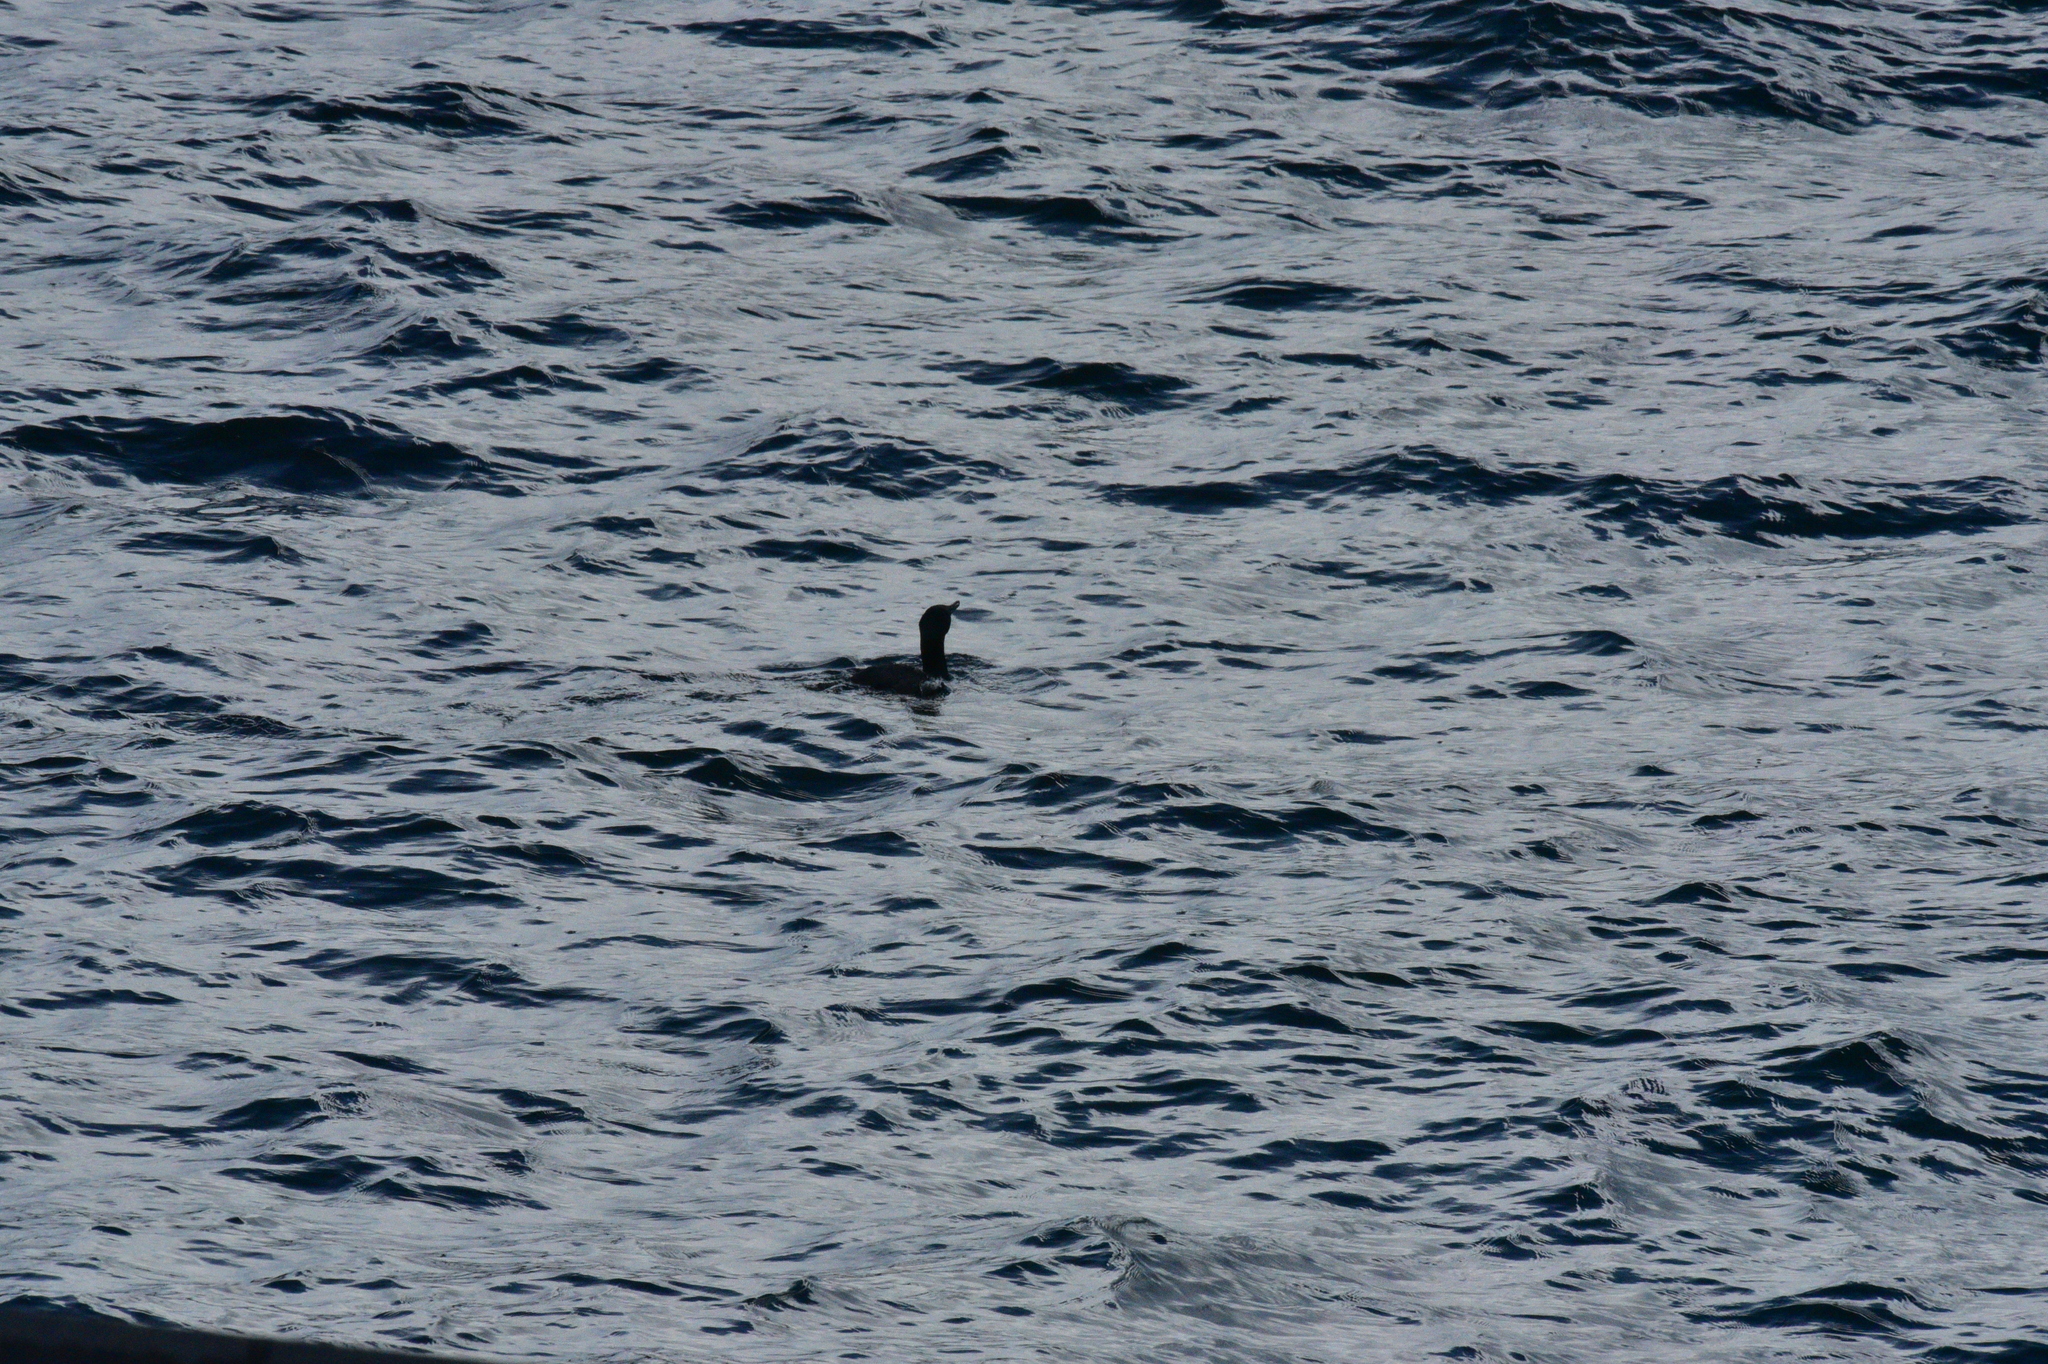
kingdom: Animalia
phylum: Chordata
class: Aves
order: Suliformes
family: Phalacrocoracidae
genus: Phalacrocorax
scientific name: Phalacrocorax pelagicus
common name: Pelagic cormorant
